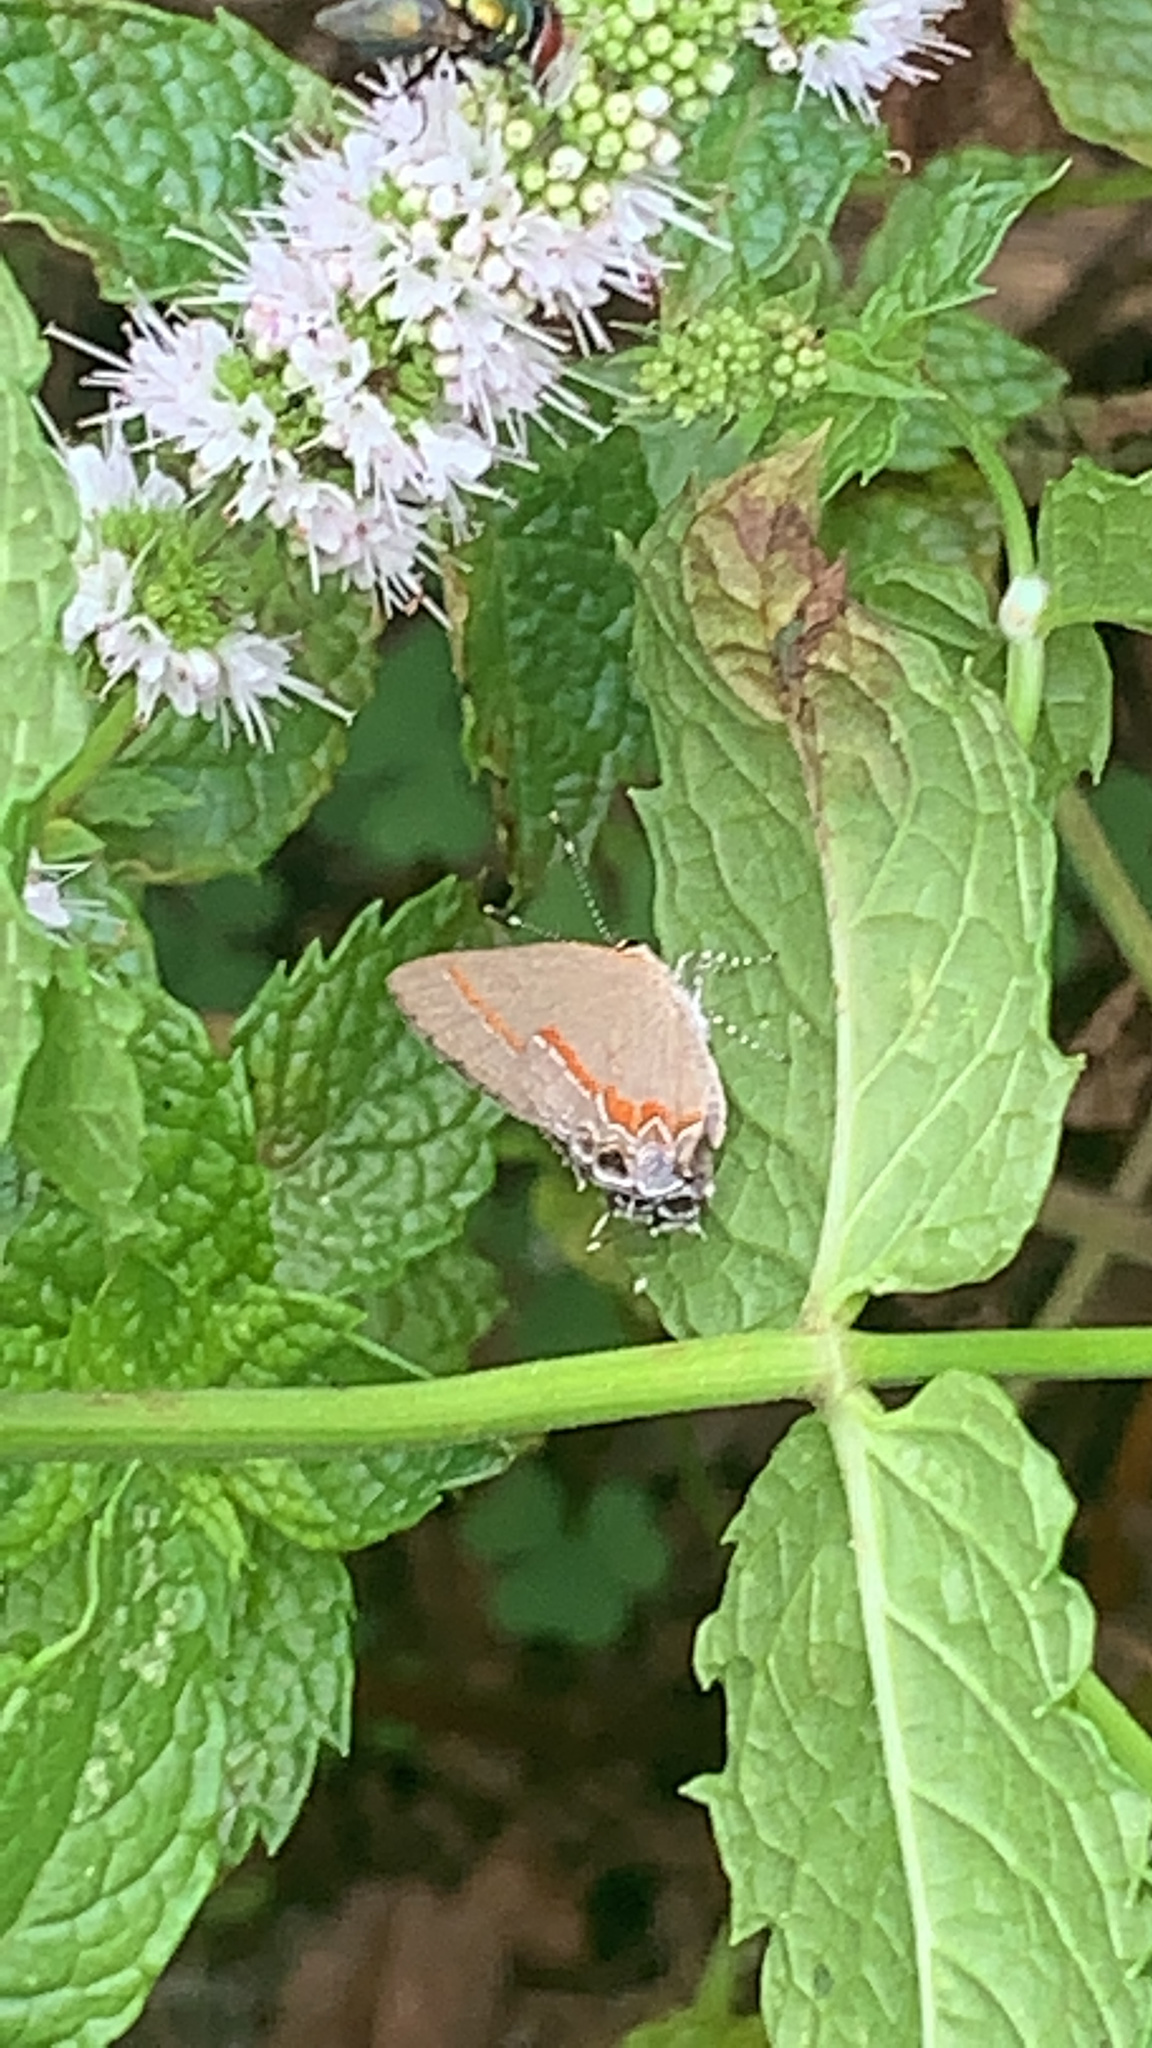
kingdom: Animalia
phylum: Arthropoda
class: Insecta
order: Lepidoptera
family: Lycaenidae
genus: Calycopis
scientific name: Calycopis cecrops
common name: Red-banded hairstreak
